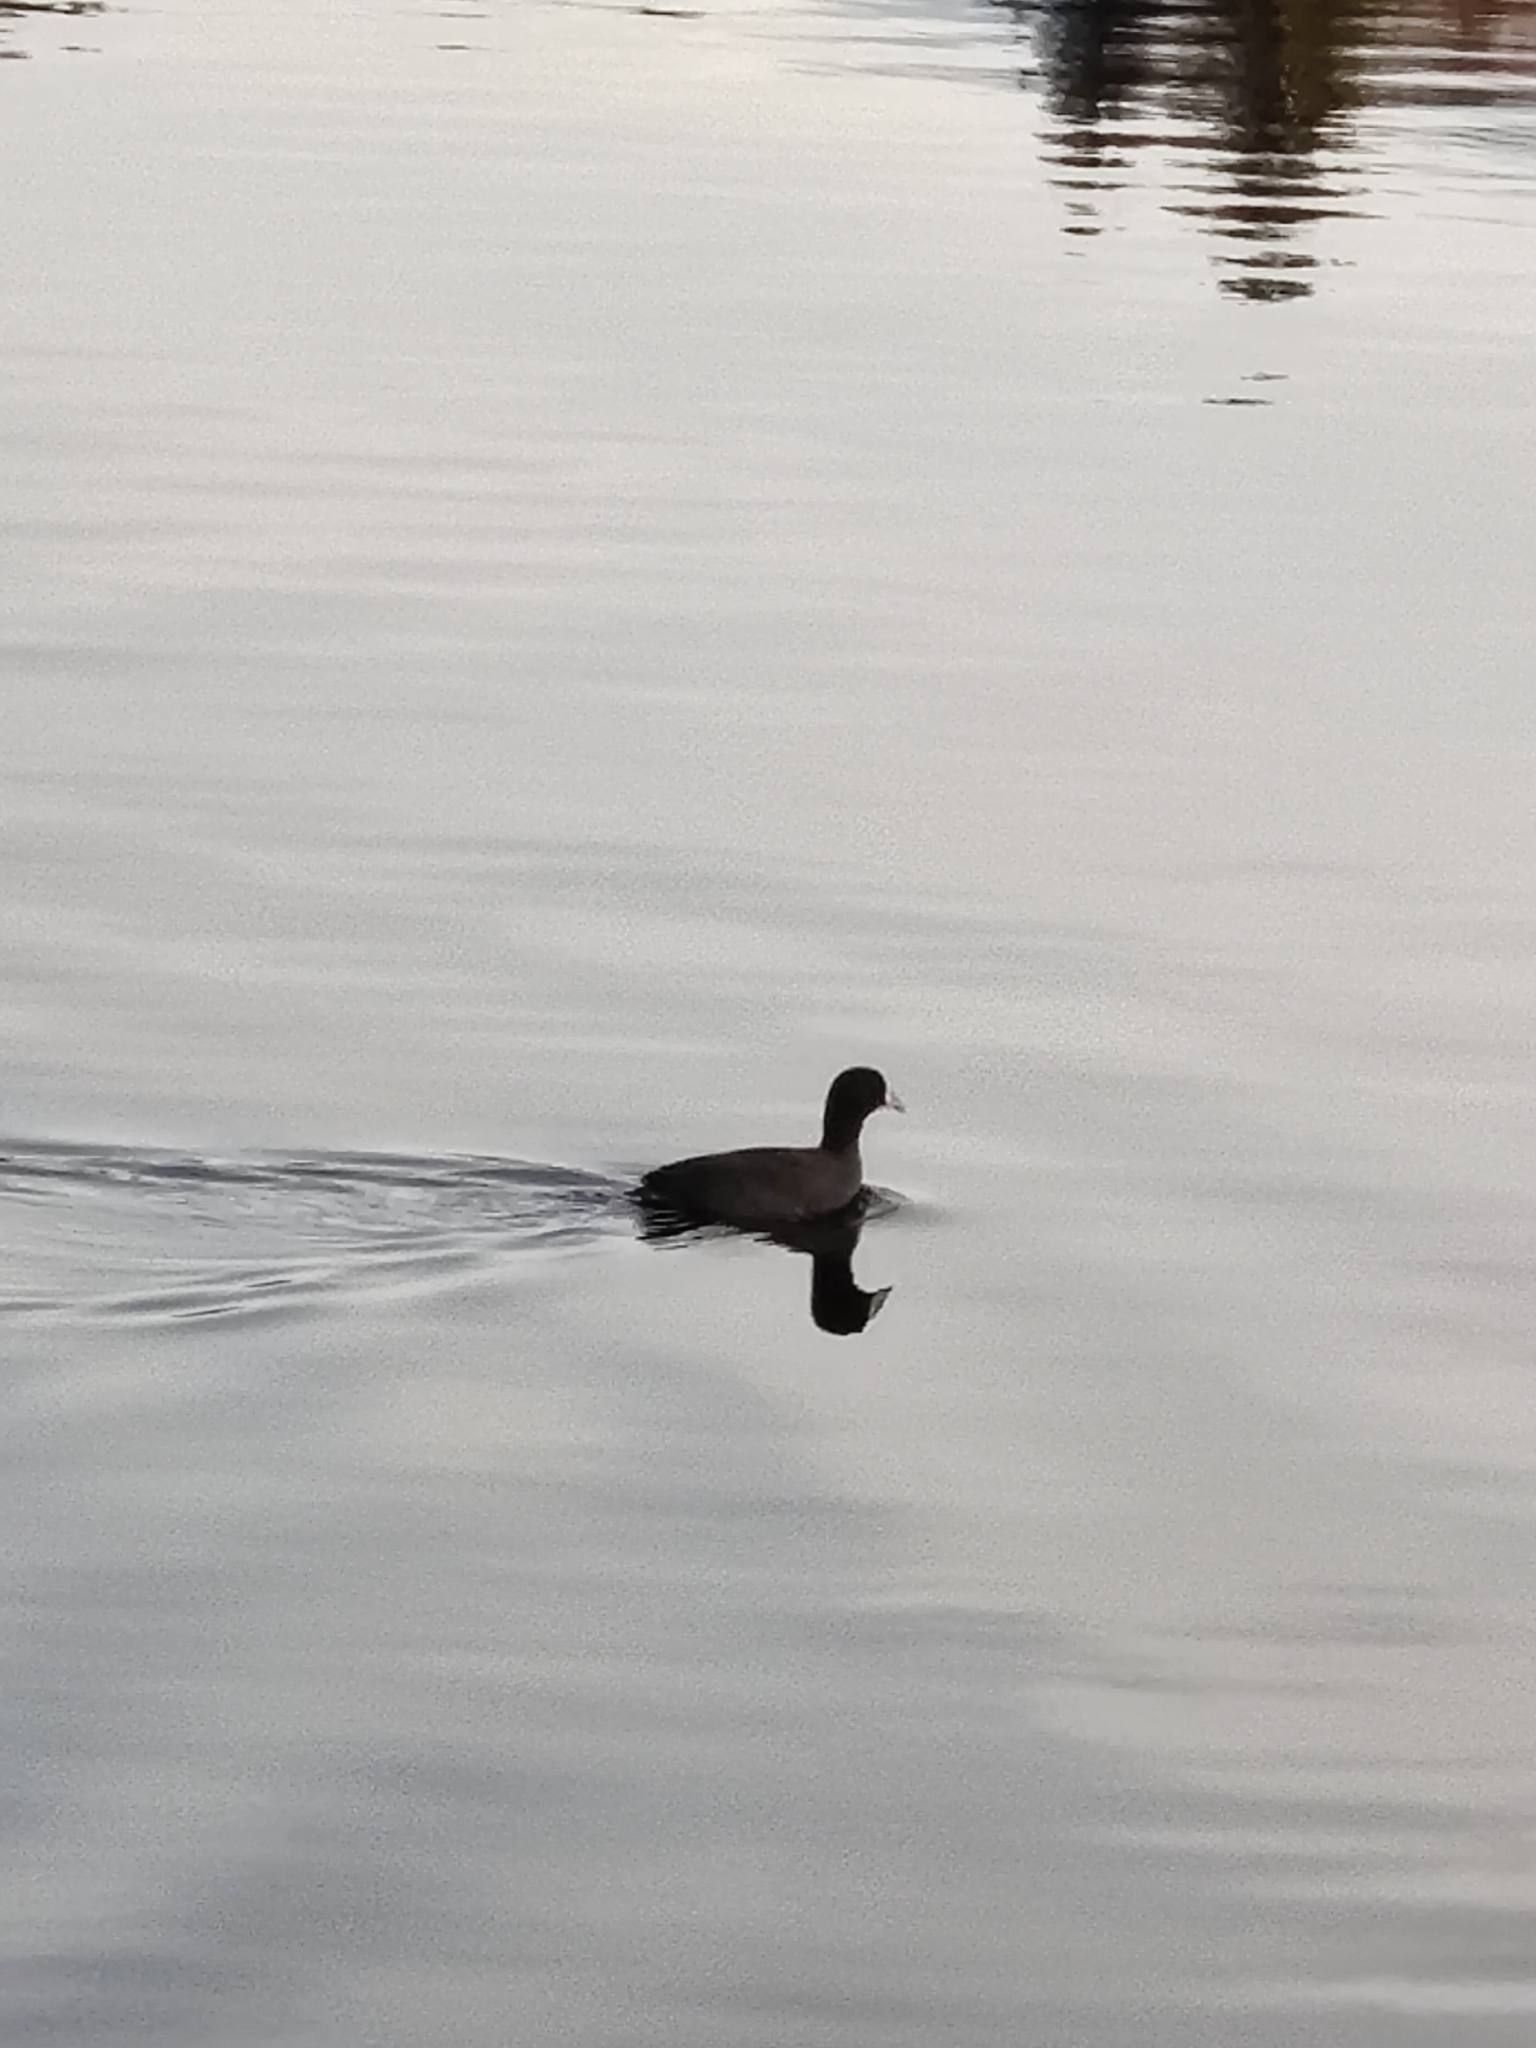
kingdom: Animalia
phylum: Chordata
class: Aves
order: Gruiformes
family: Rallidae
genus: Fulica
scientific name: Fulica americana
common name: American coot
